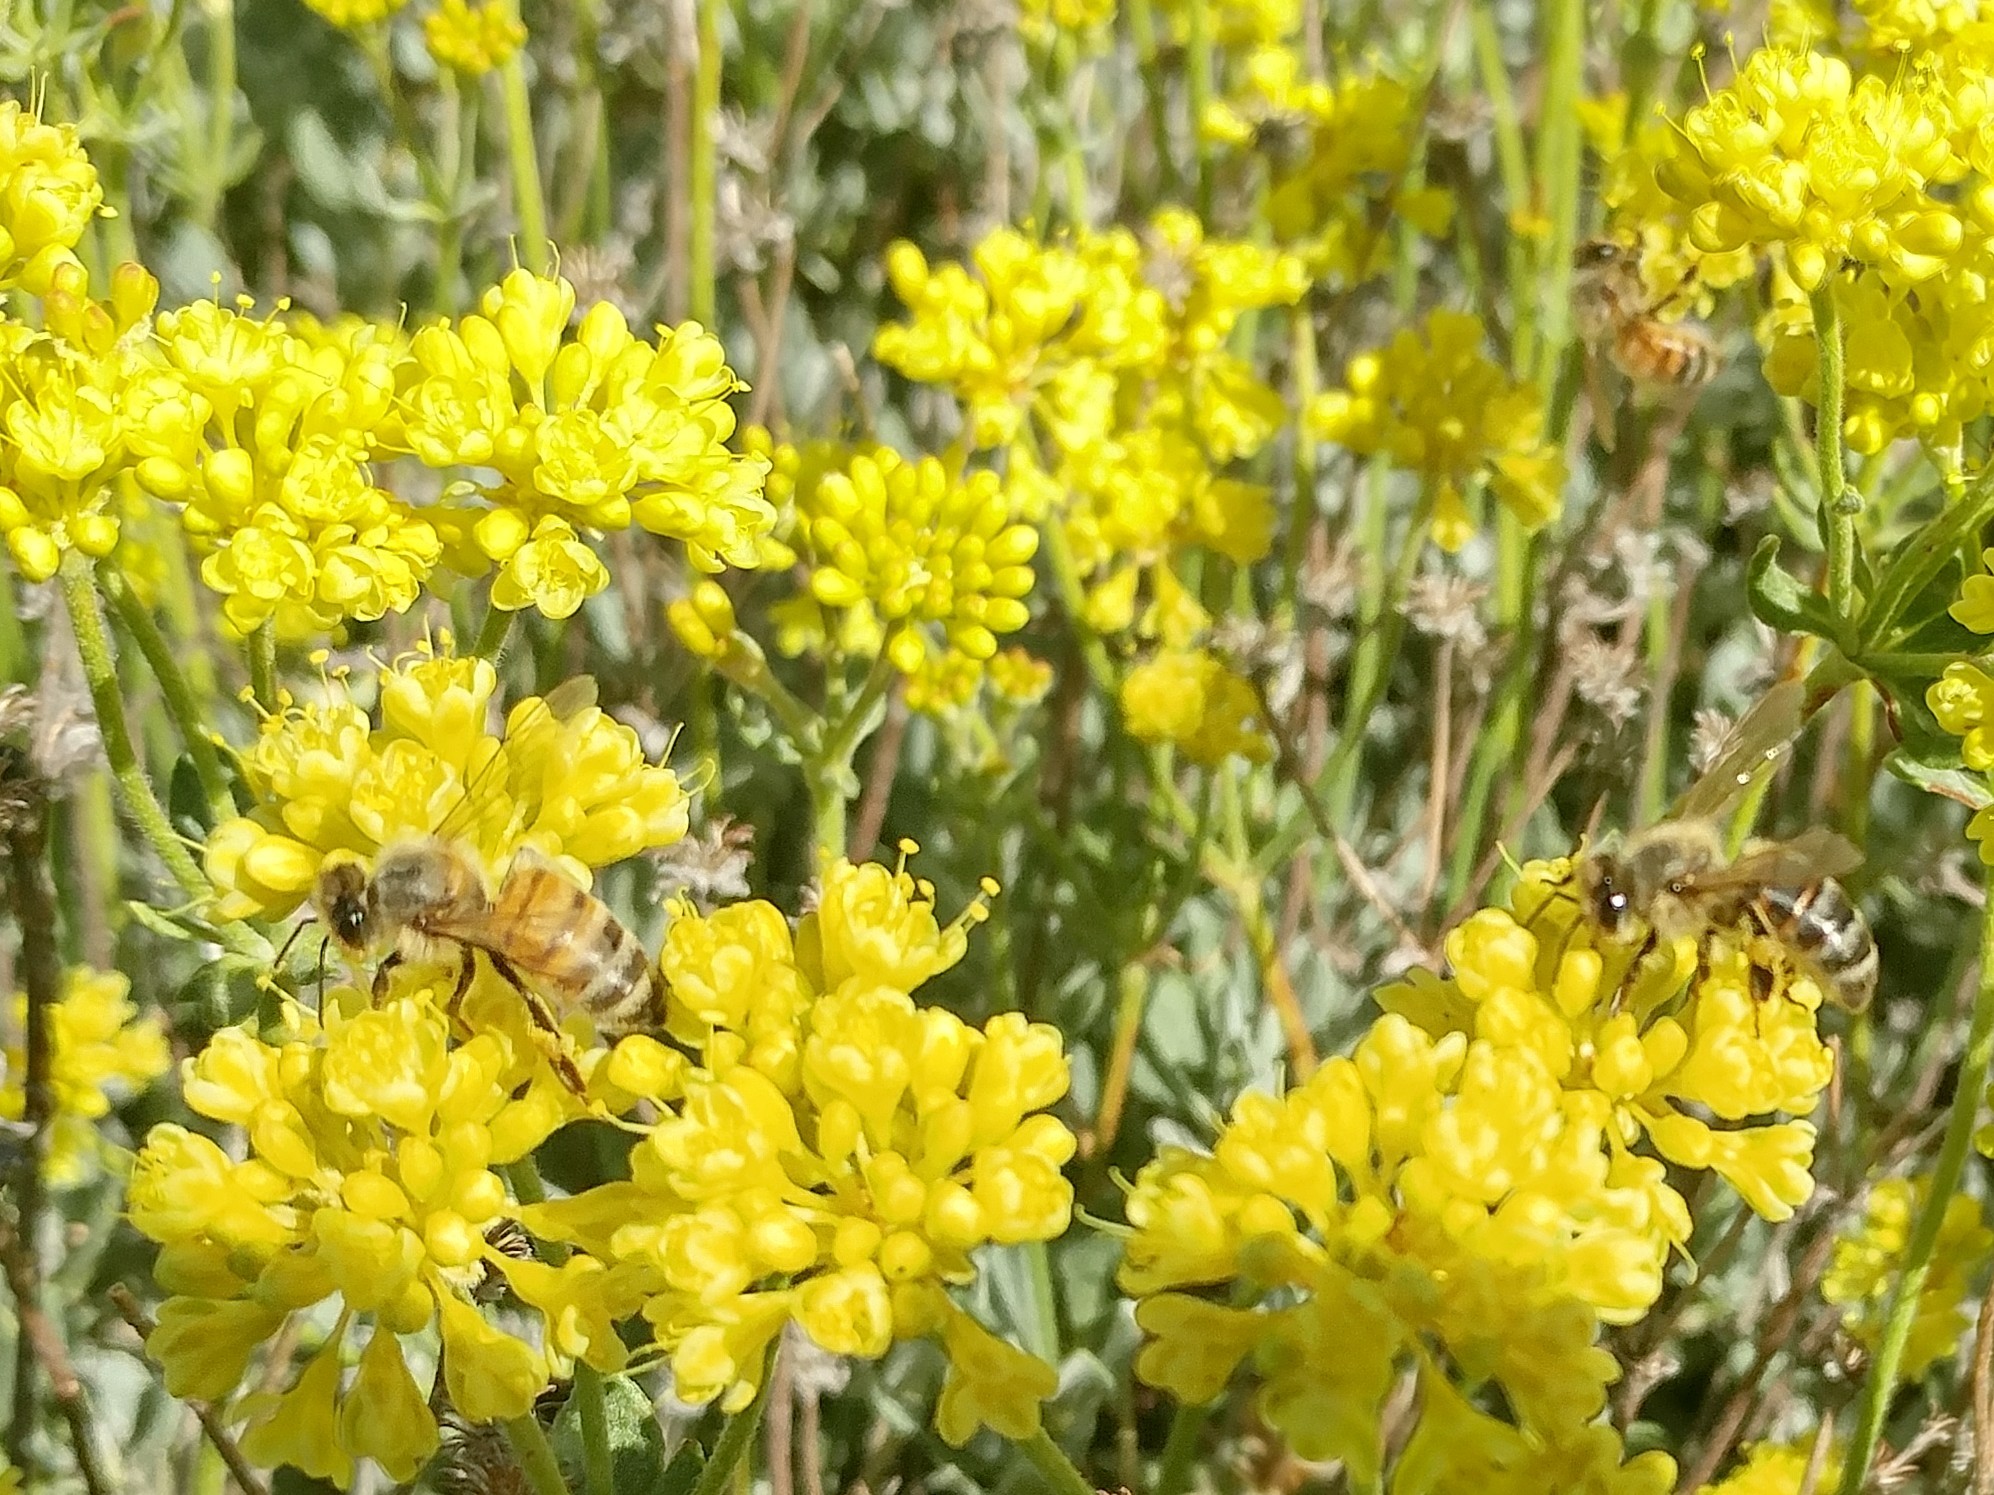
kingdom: Animalia
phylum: Arthropoda
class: Insecta
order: Hymenoptera
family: Apidae
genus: Apis
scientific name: Apis mellifera
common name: Honey bee
